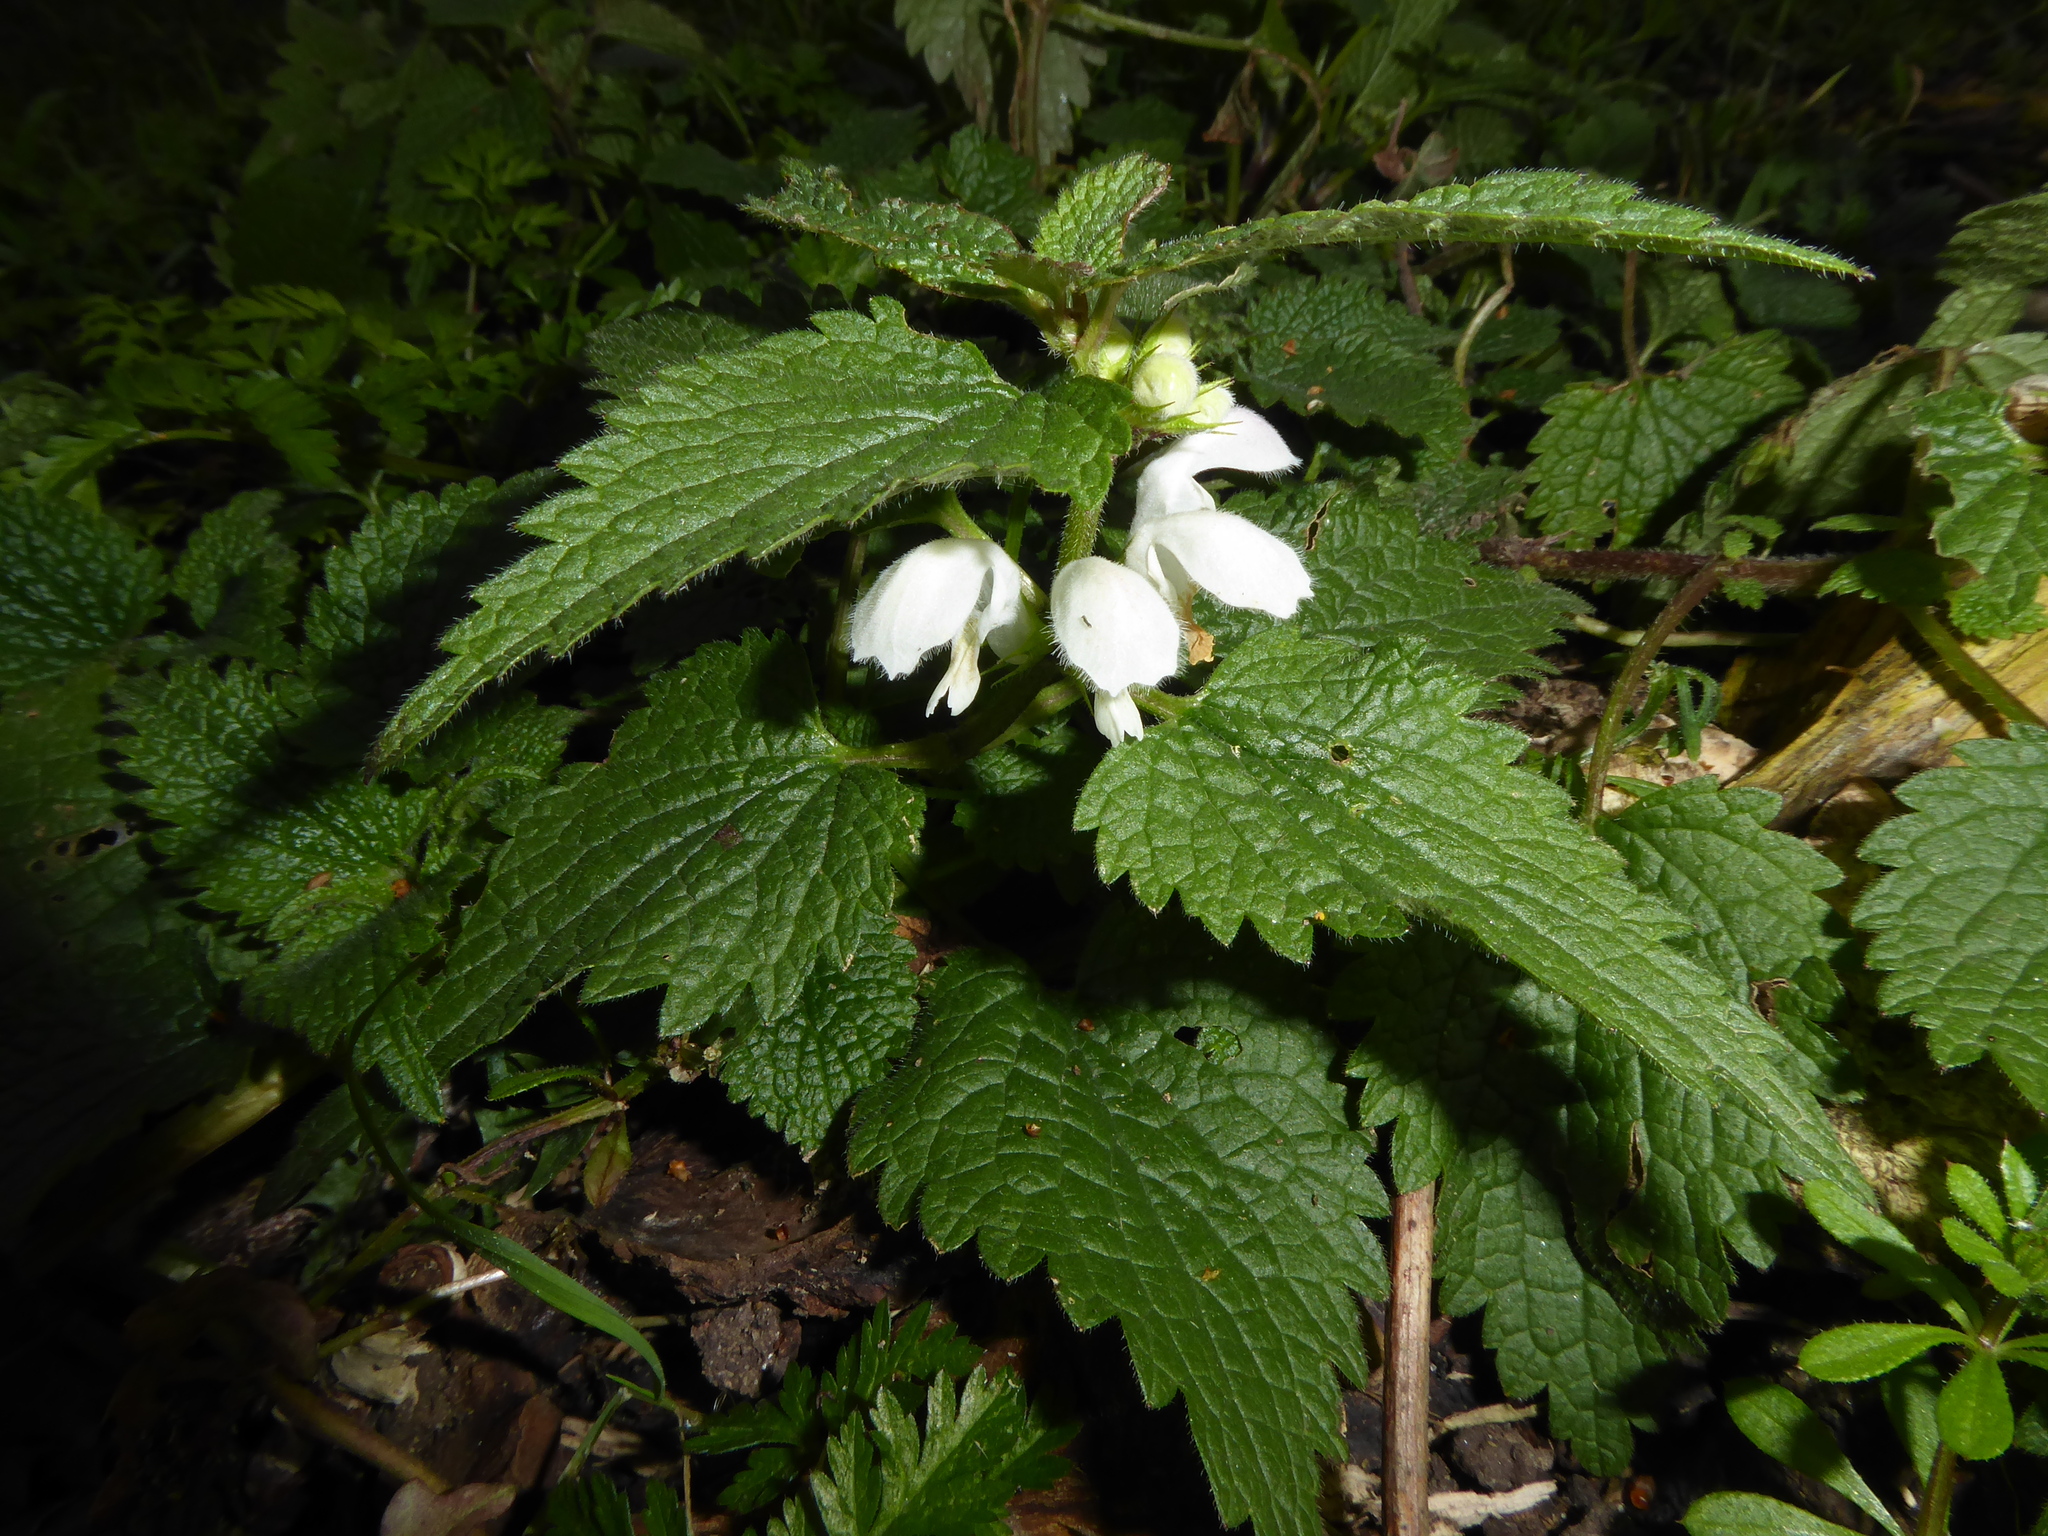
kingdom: Plantae
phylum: Tracheophyta
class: Magnoliopsida
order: Lamiales
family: Lamiaceae
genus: Lamium
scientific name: Lamium album
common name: White dead-nettle
